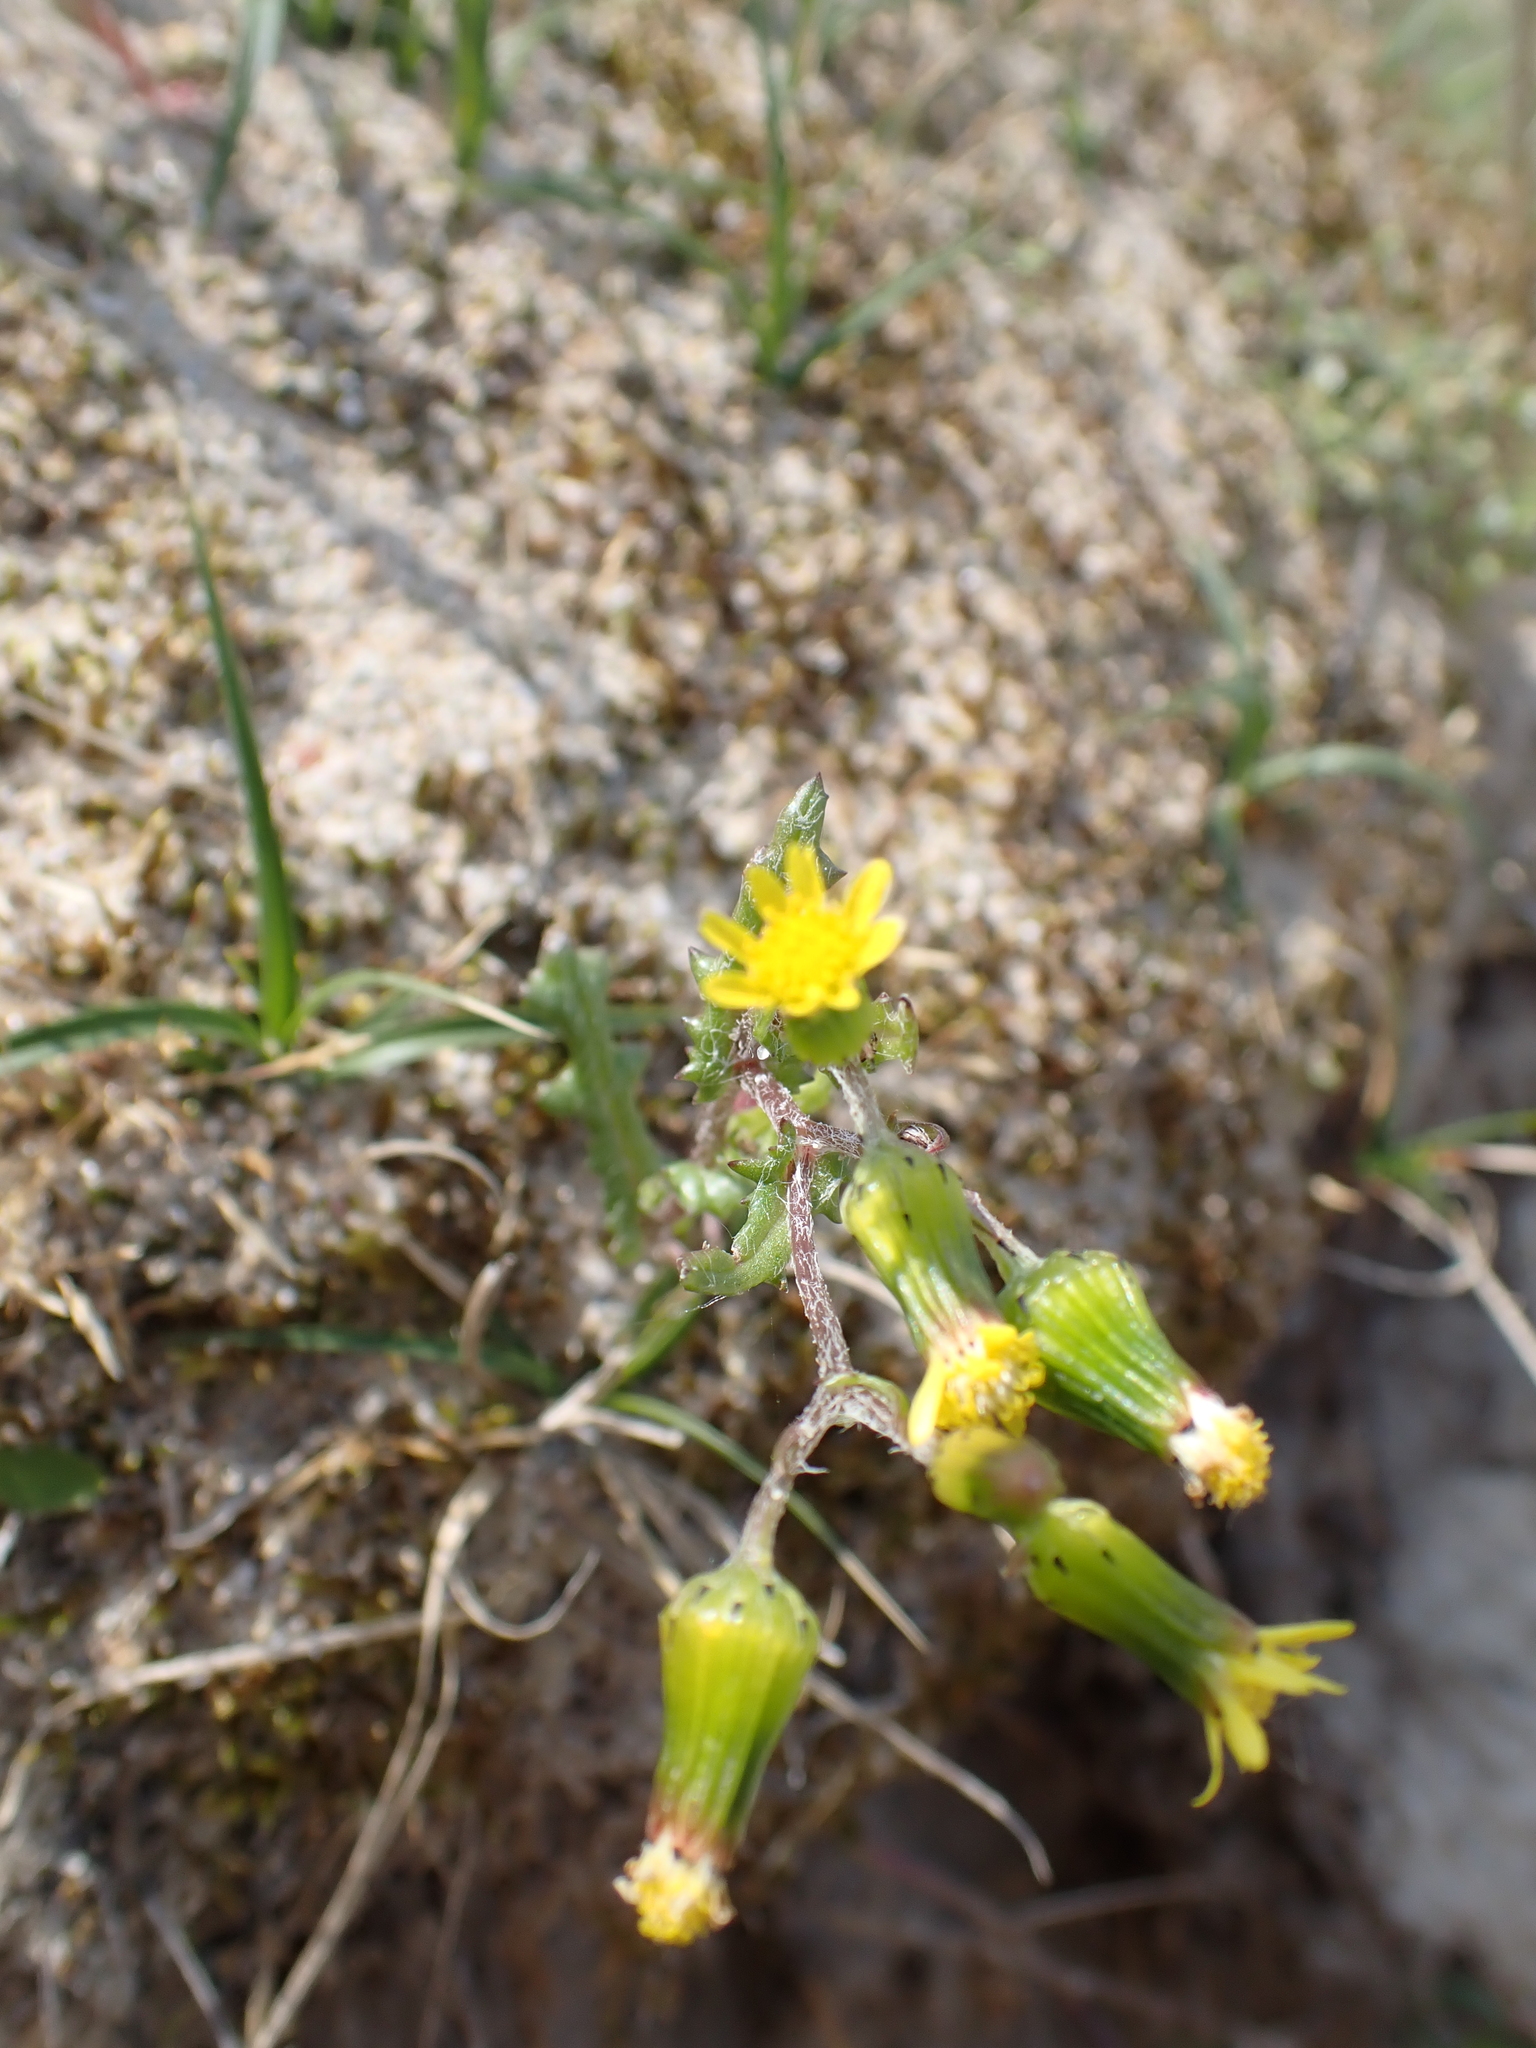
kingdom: Plantae
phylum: Tracheophyta
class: Magnoliopsida
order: Asterales
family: Asteraceae
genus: Senecio
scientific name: Senecio vulgaris
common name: Old-man-in-the-spring
